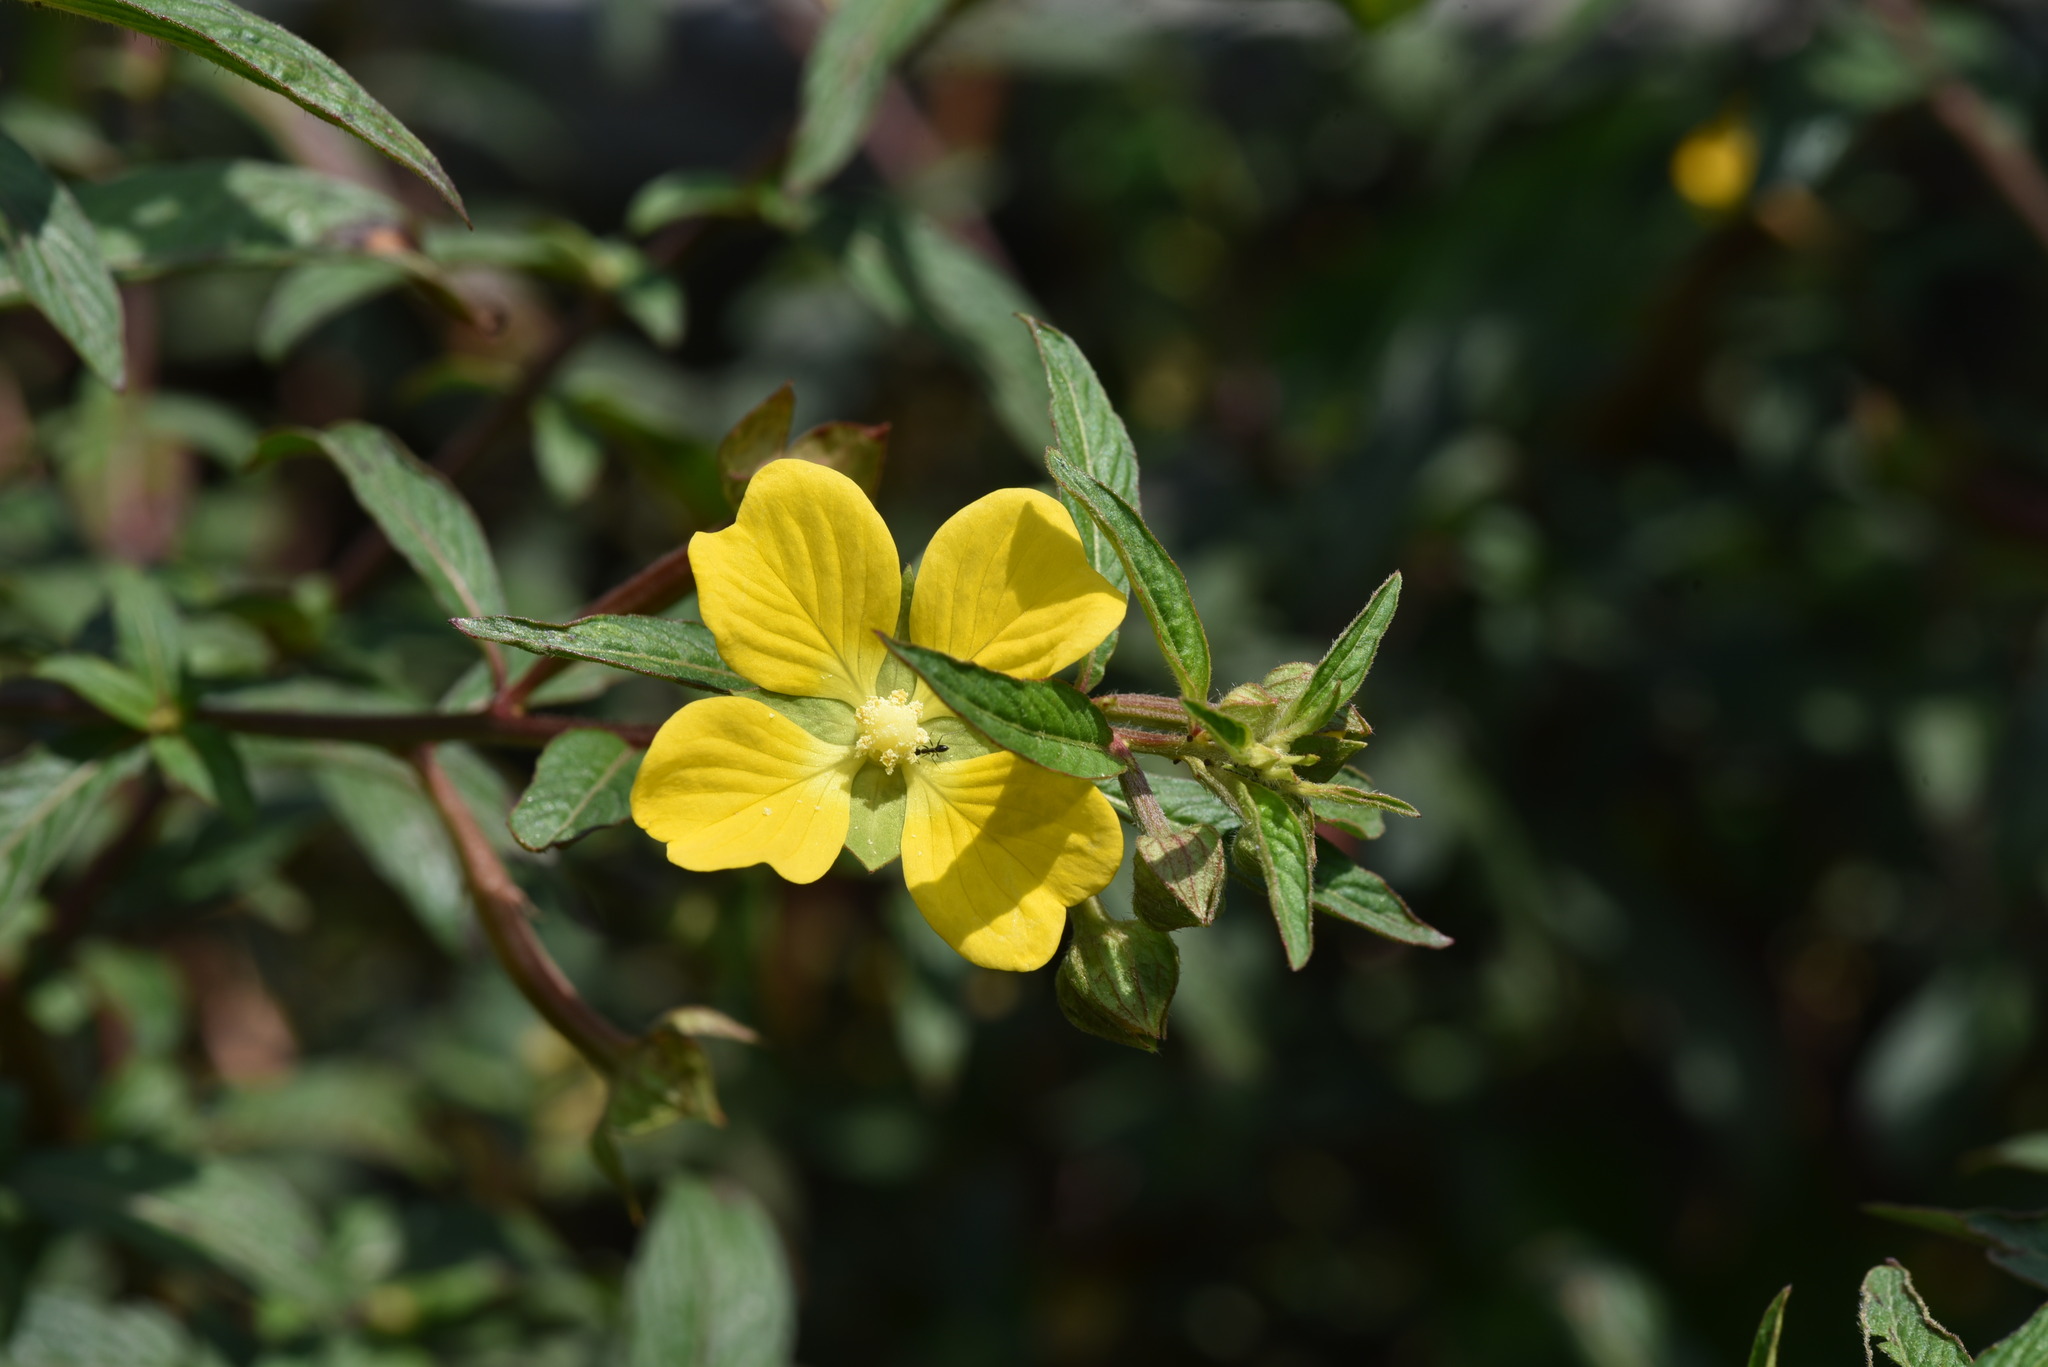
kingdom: Plantae
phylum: Tracheophyta
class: Magnoliopsida
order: Myrtales
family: Onagraceae
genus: Ludwigia
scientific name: Ludwigia octovalvis
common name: Water-primrose
